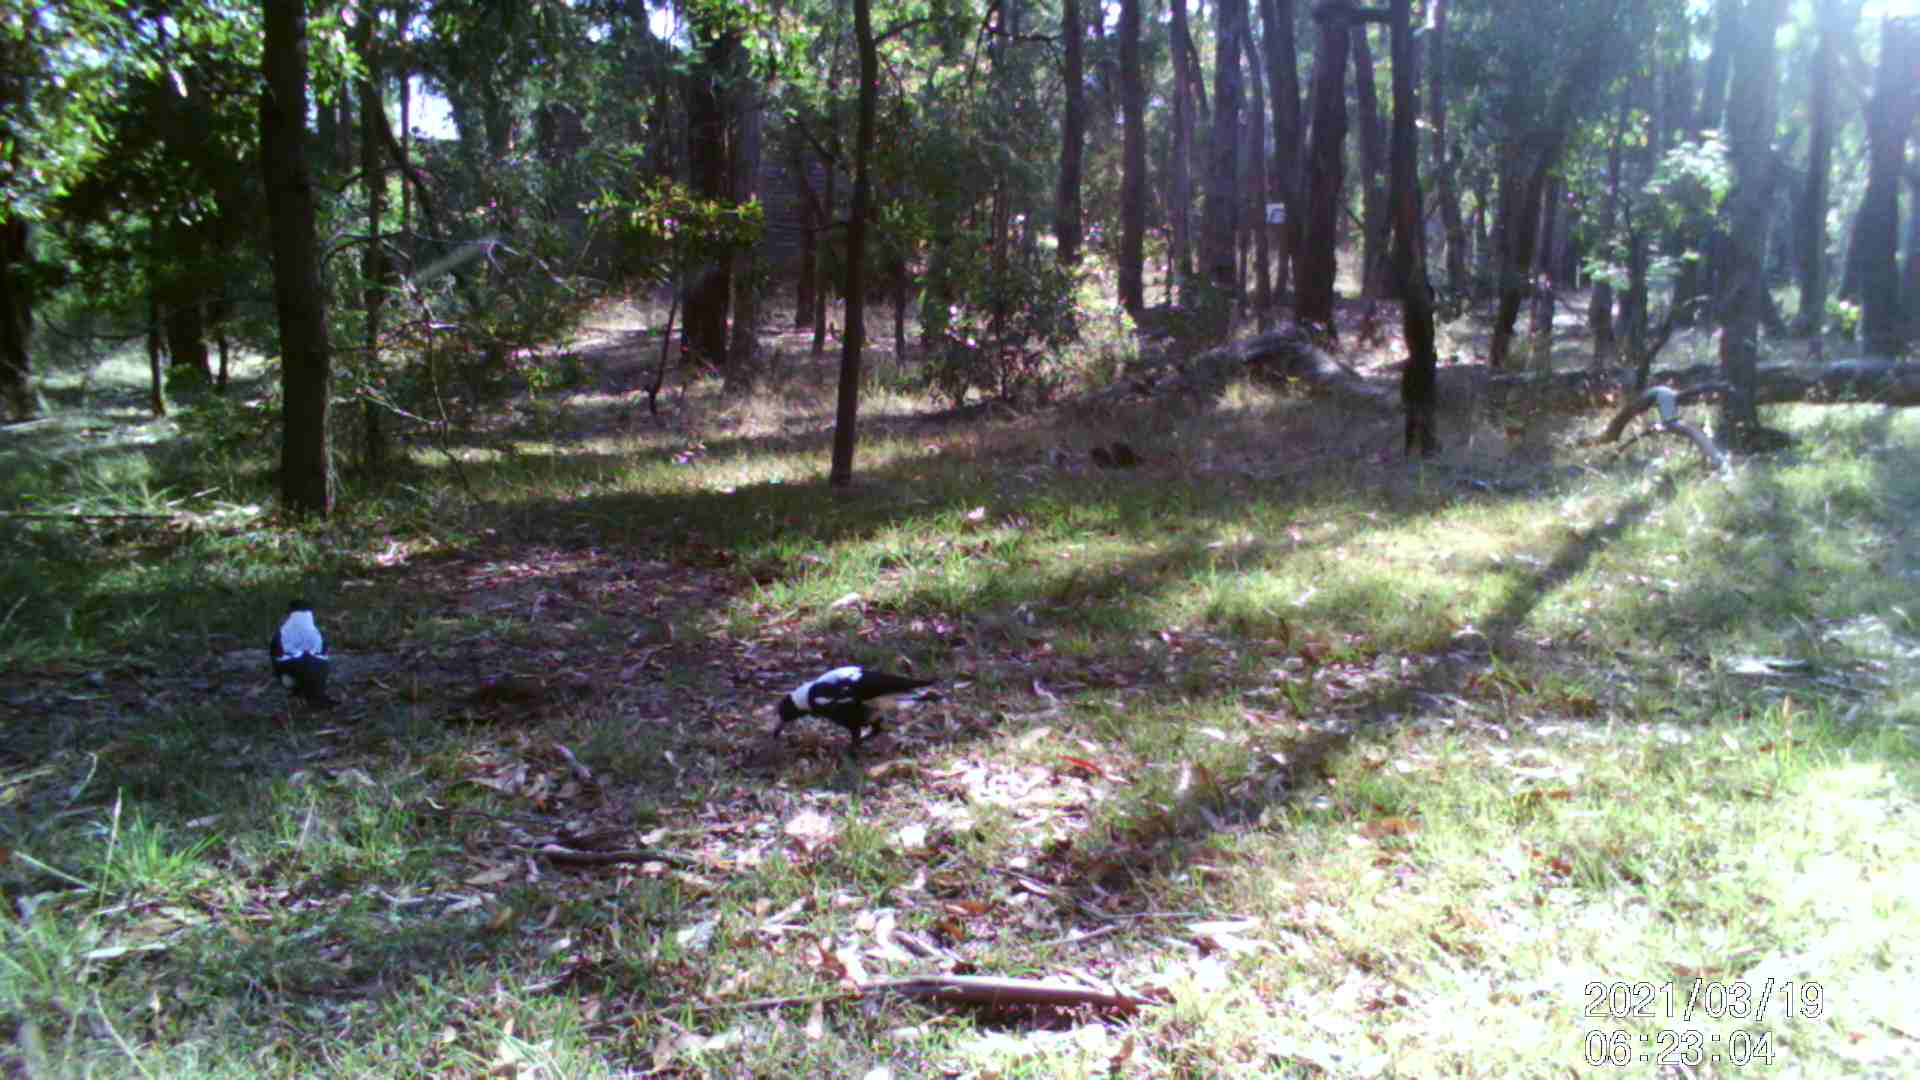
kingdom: Animalia
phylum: Chordata
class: Aves
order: Passeriformes
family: Cracticidae
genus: Gymnorhina
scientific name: Gymnorhina tibicen
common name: Australian magpie
